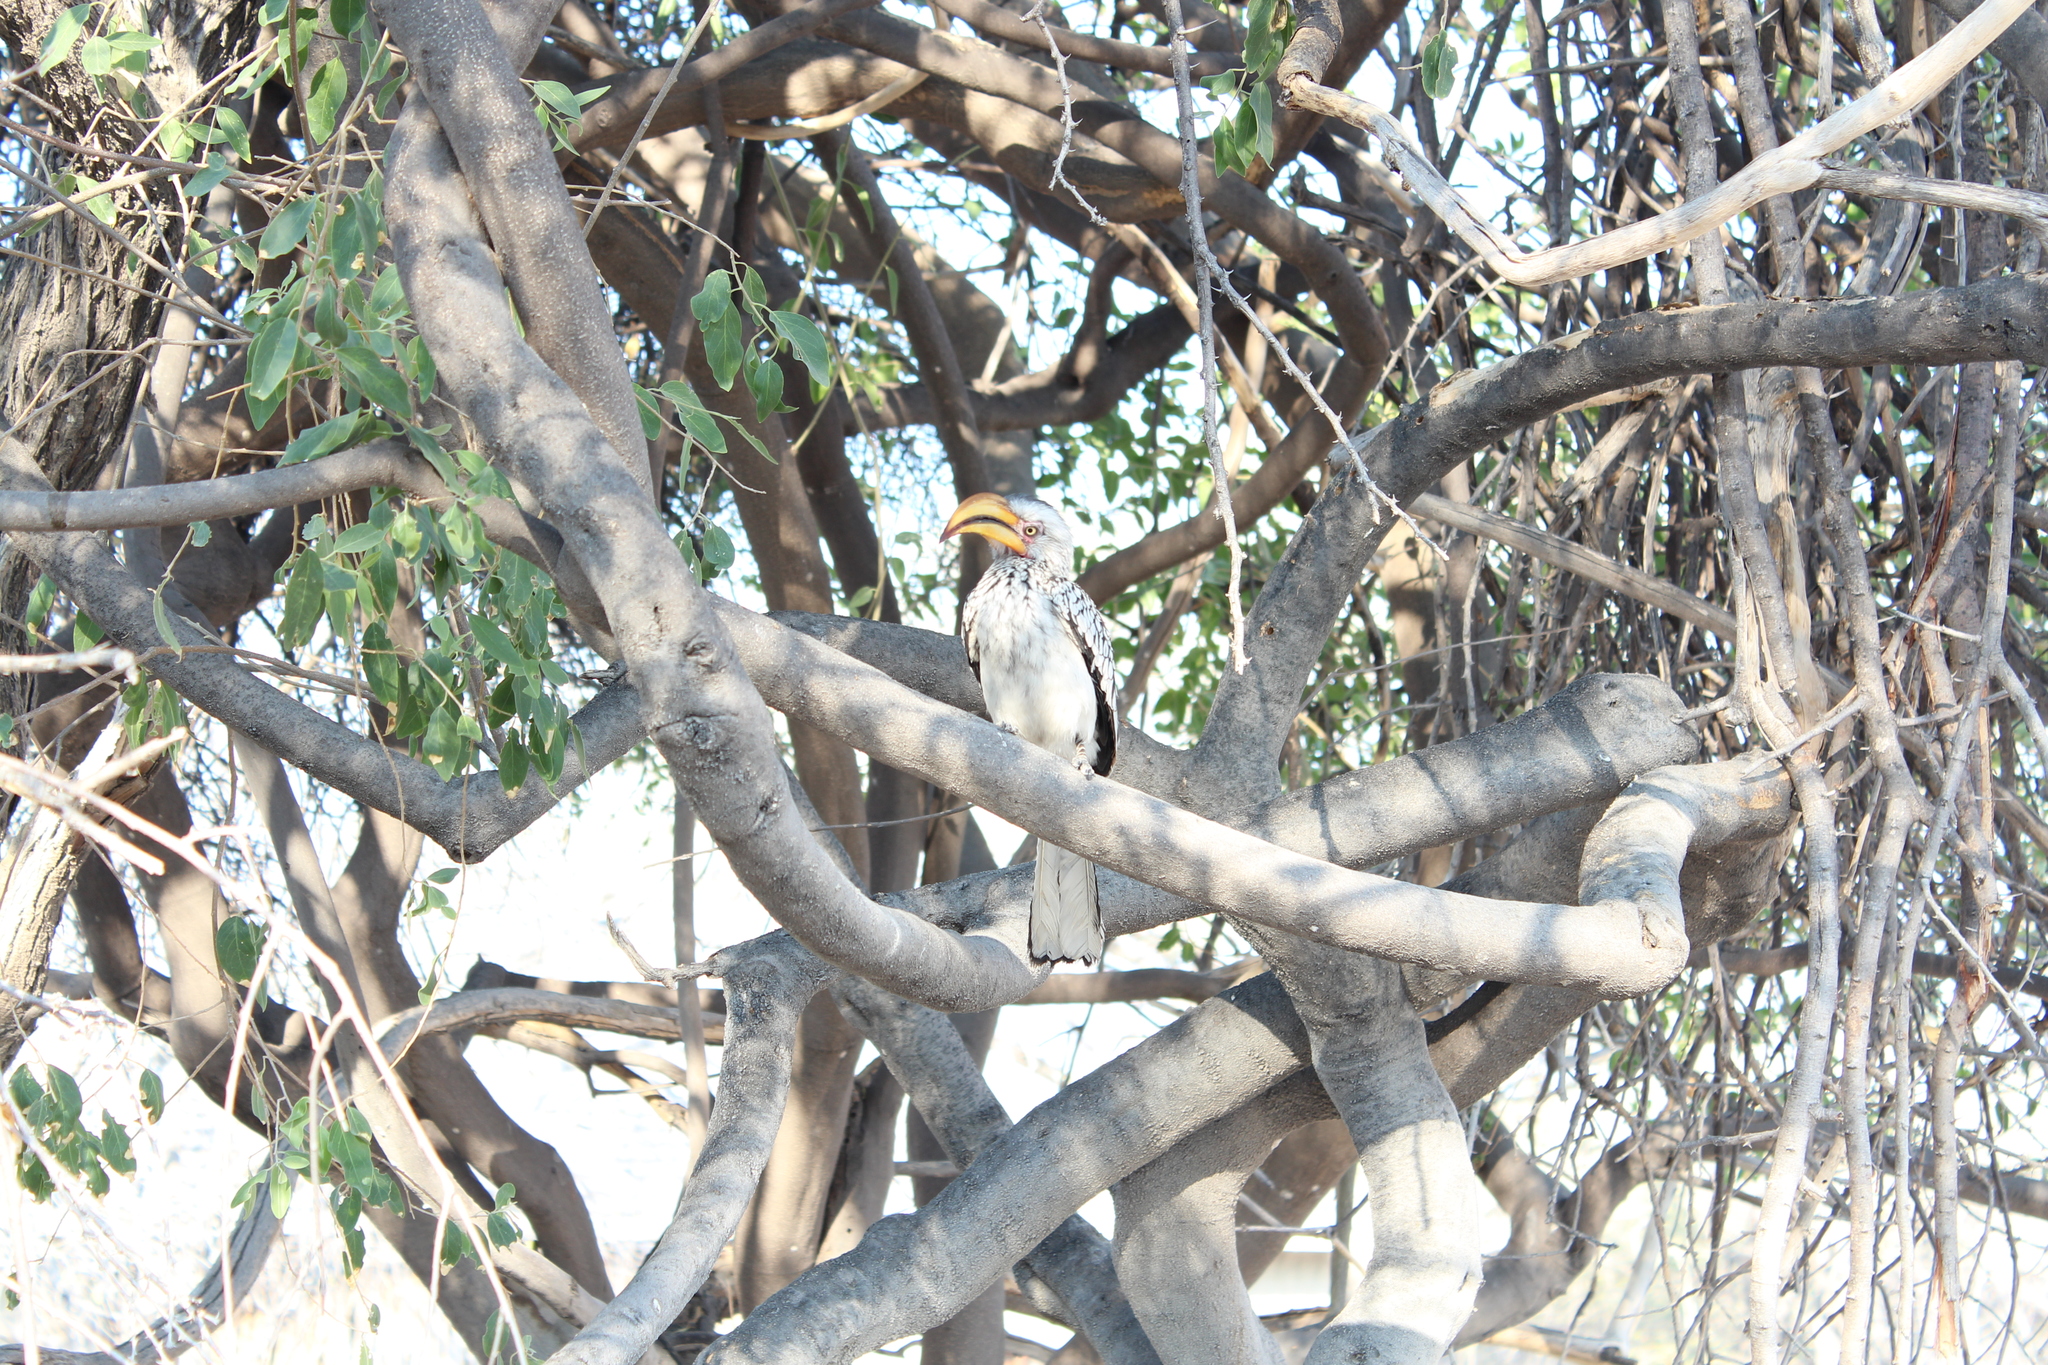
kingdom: Animalia
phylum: Chordata
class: Aves
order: Bucerotiformes
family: Bucerotidae
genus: Tockus
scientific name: Tockus leucomelas
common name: Southern yellow-billed hornbill
